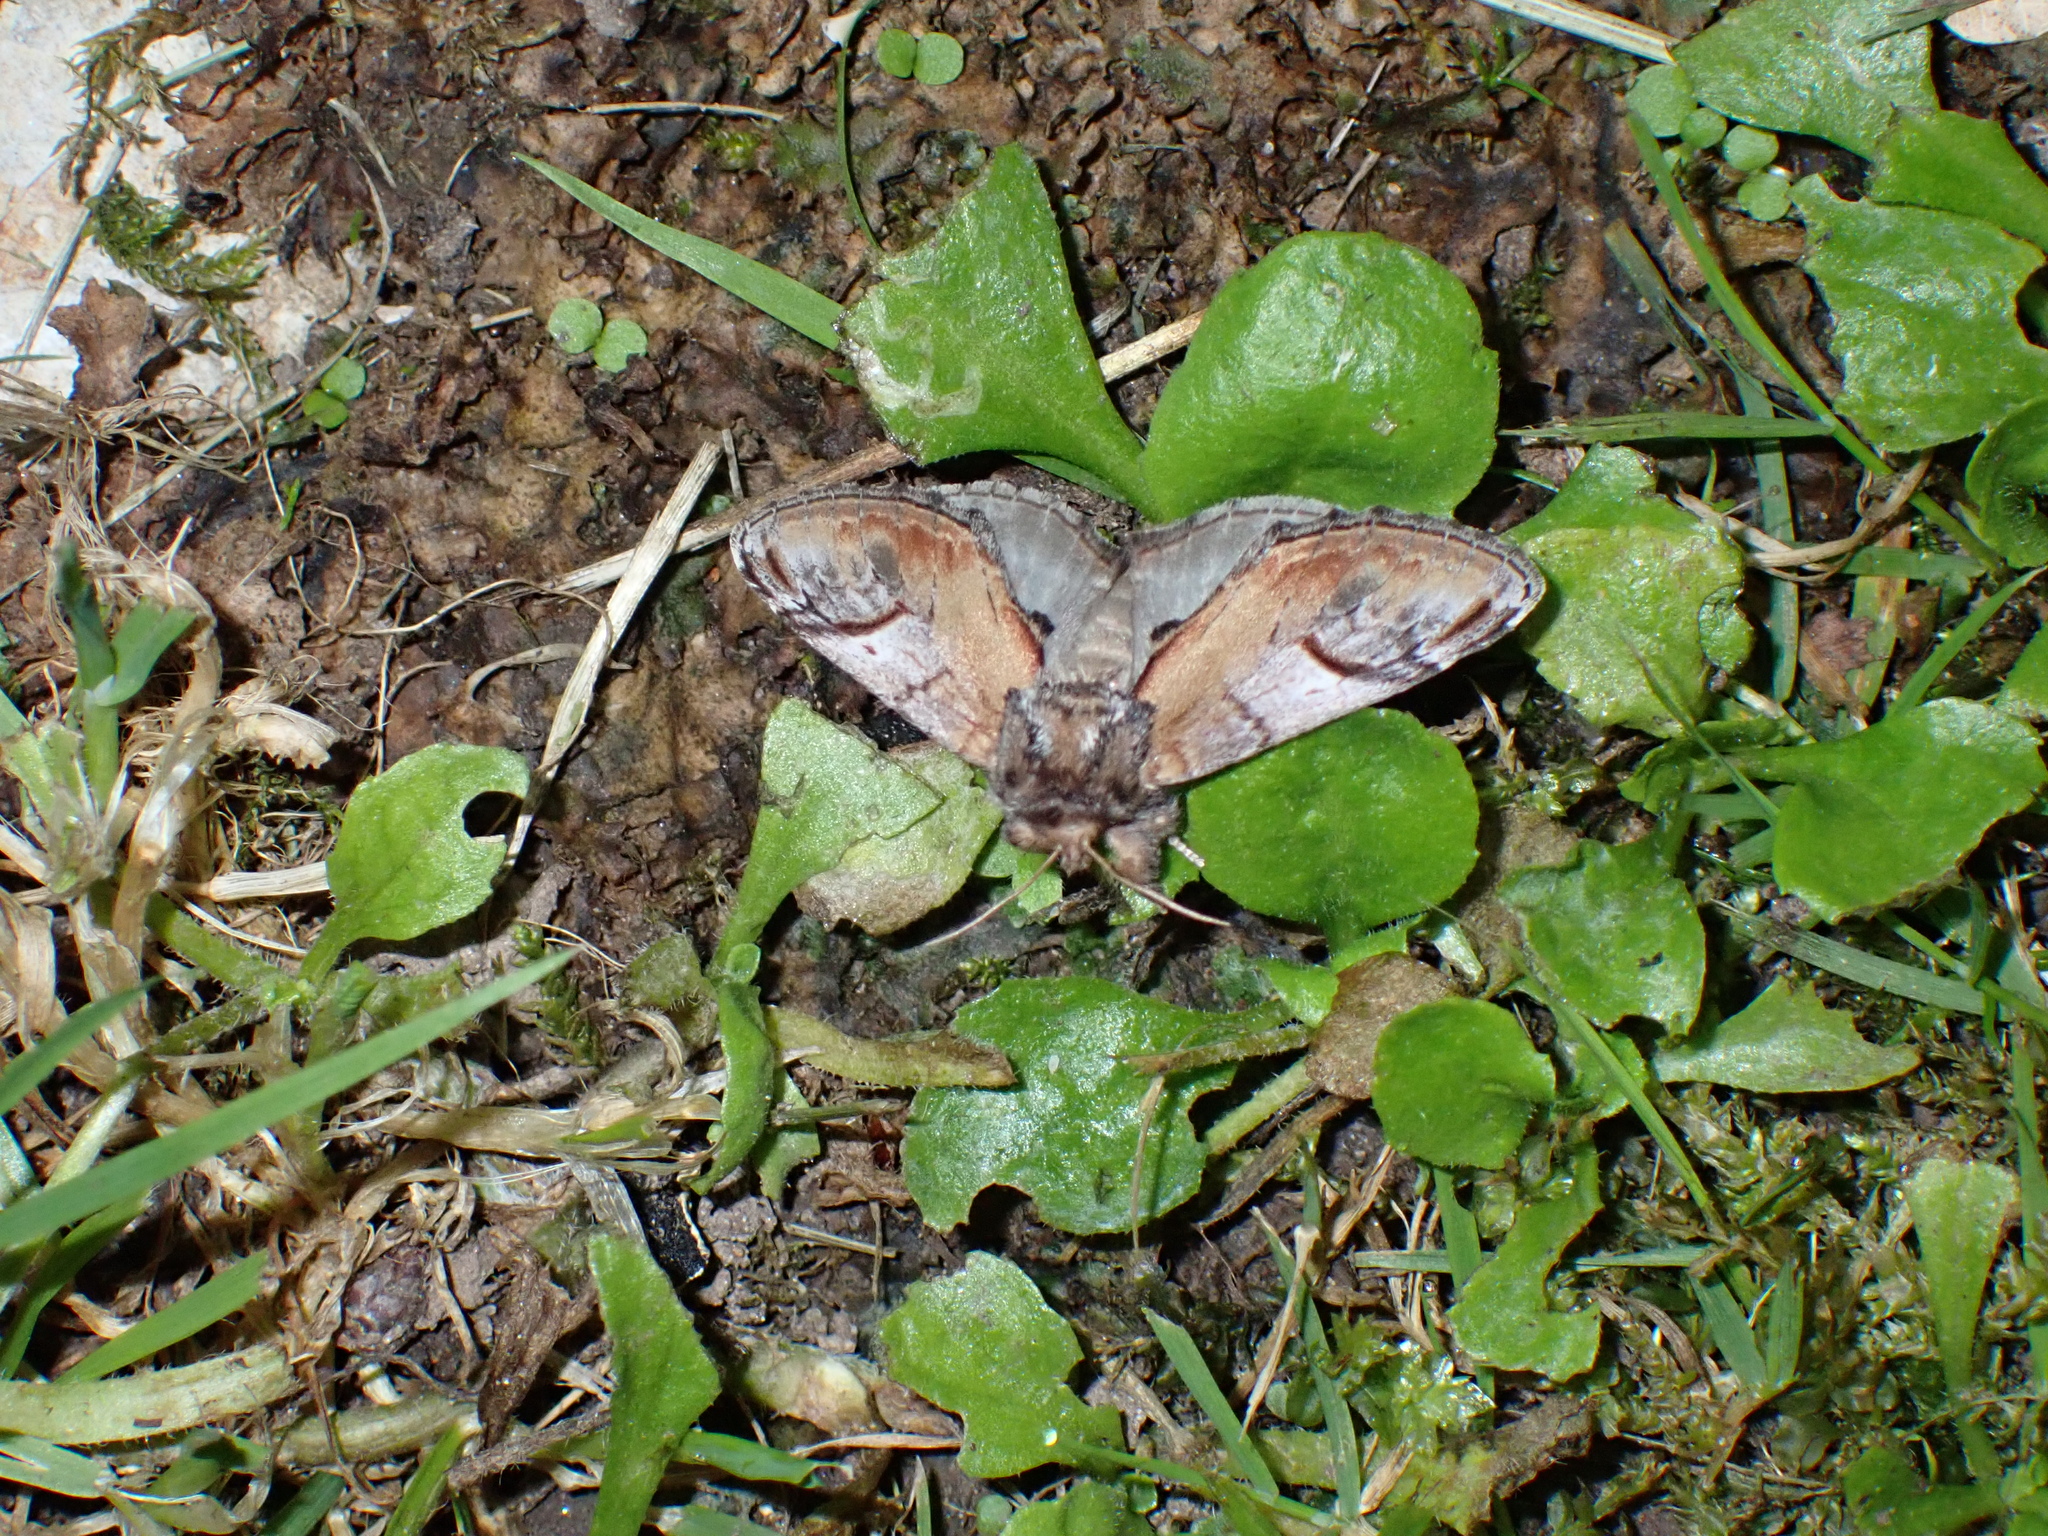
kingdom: Animalia
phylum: Arthropoda
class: Insecta
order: Lepidoptera
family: Notodontidae
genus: Notodonta
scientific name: Notodonta ziczac
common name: Pebble prominent
